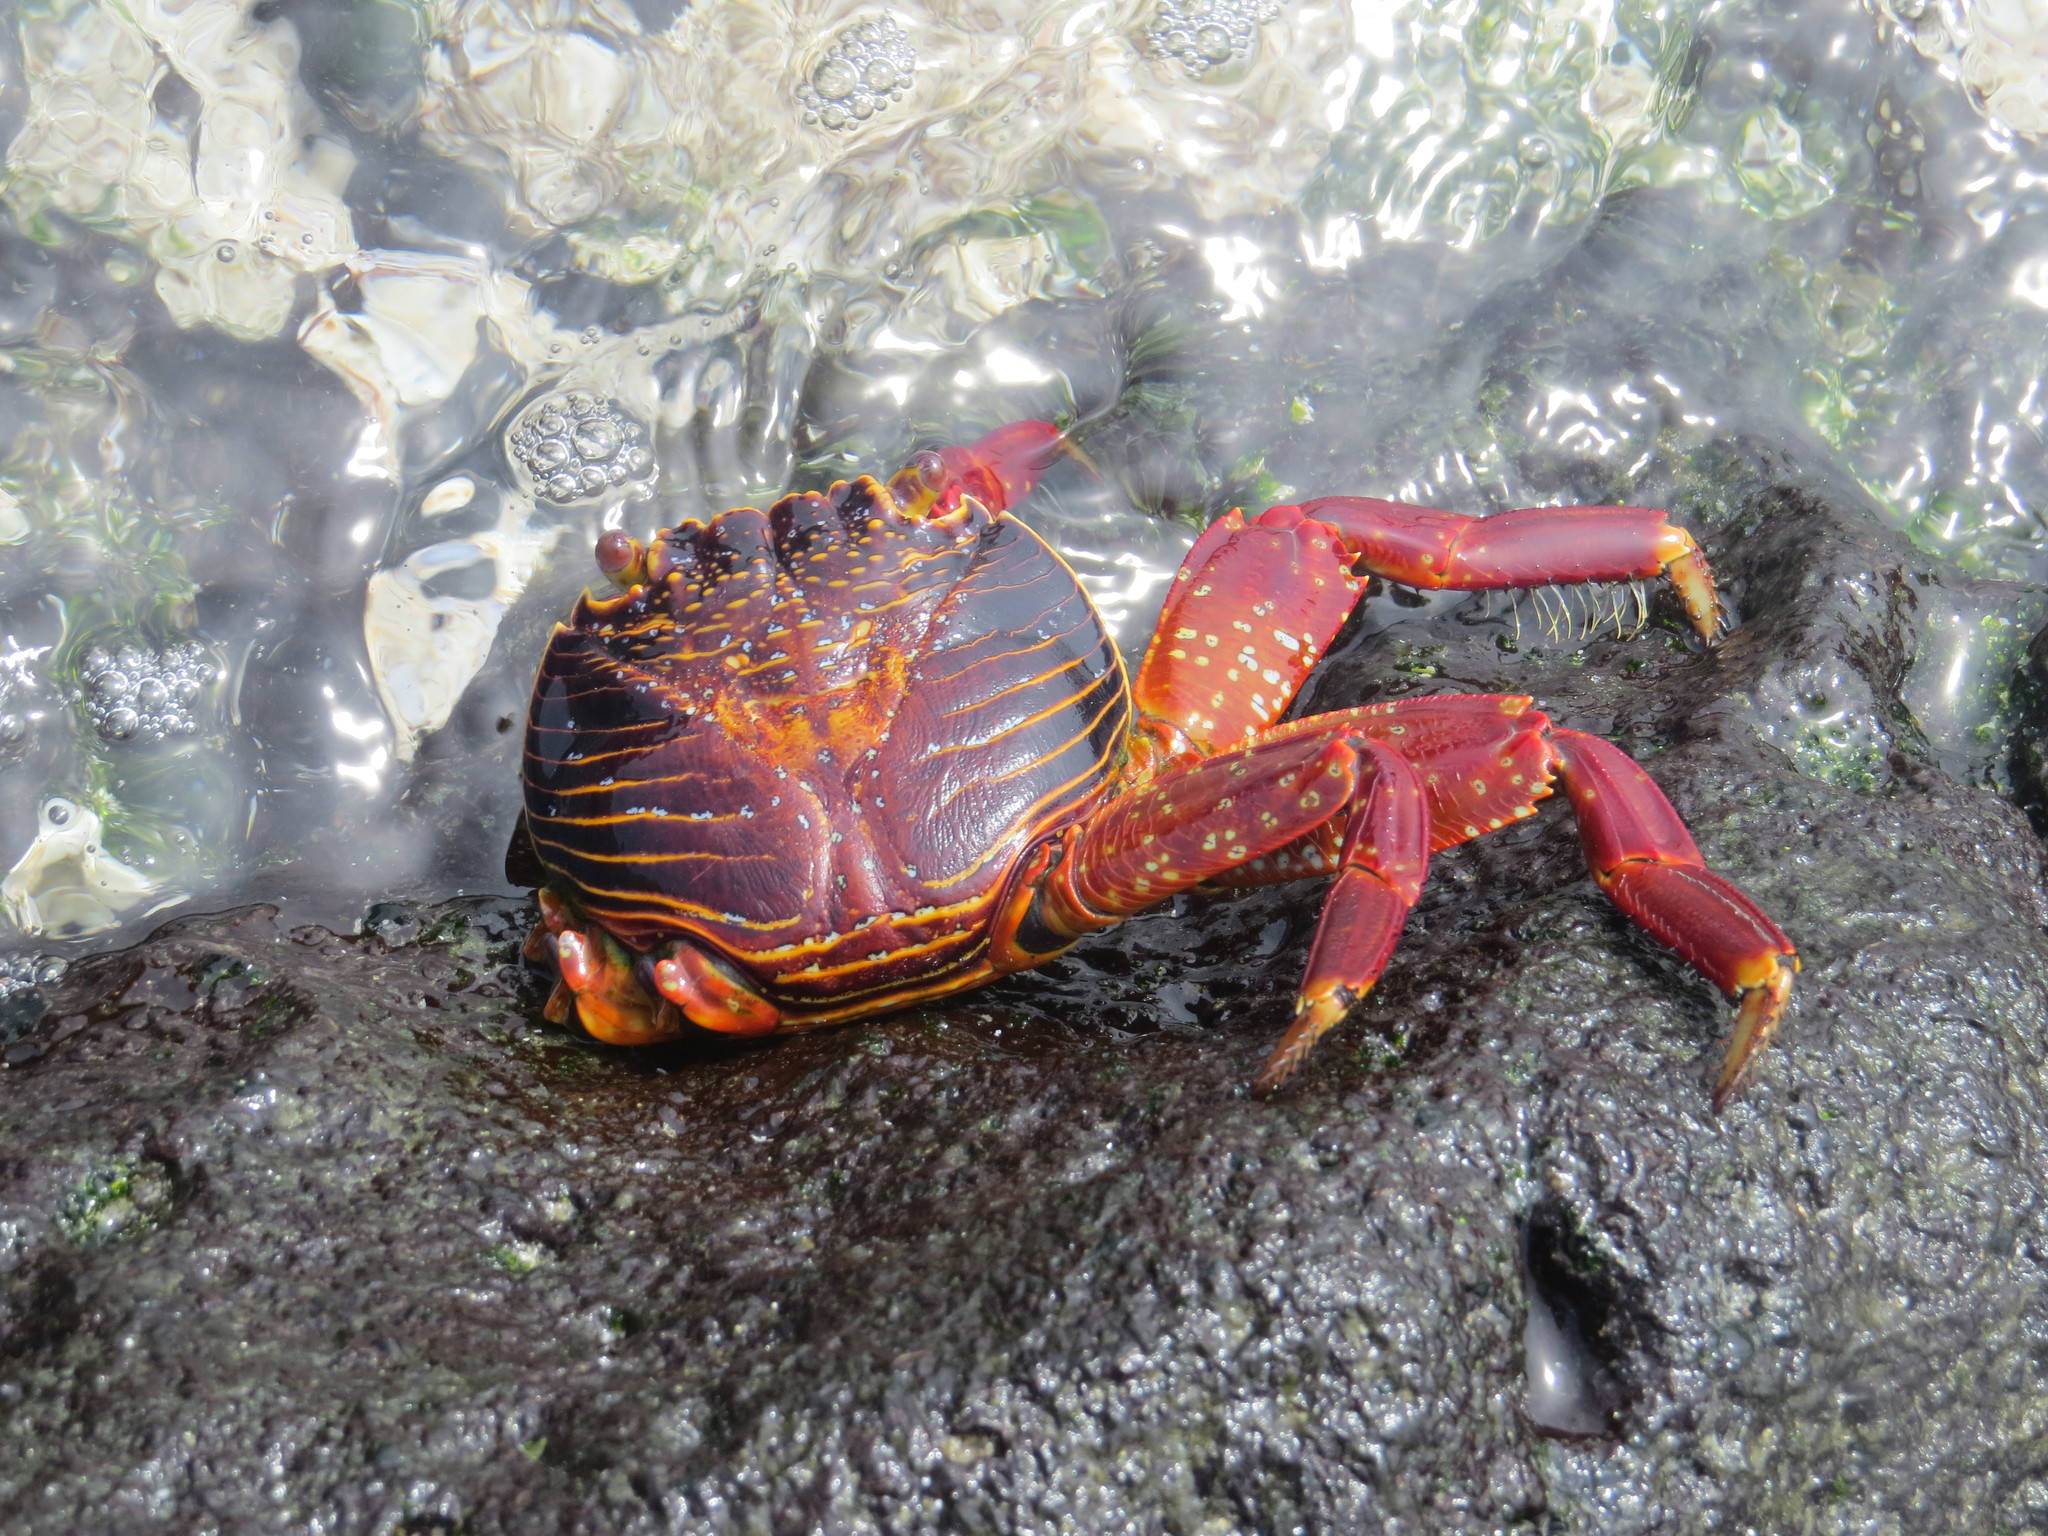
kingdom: Animalia
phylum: Arthropoda
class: Malacostraca
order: Decapoda
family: Grapsidae
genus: Grapsus
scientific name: Grapsus grapsus
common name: Sally lightfoot
